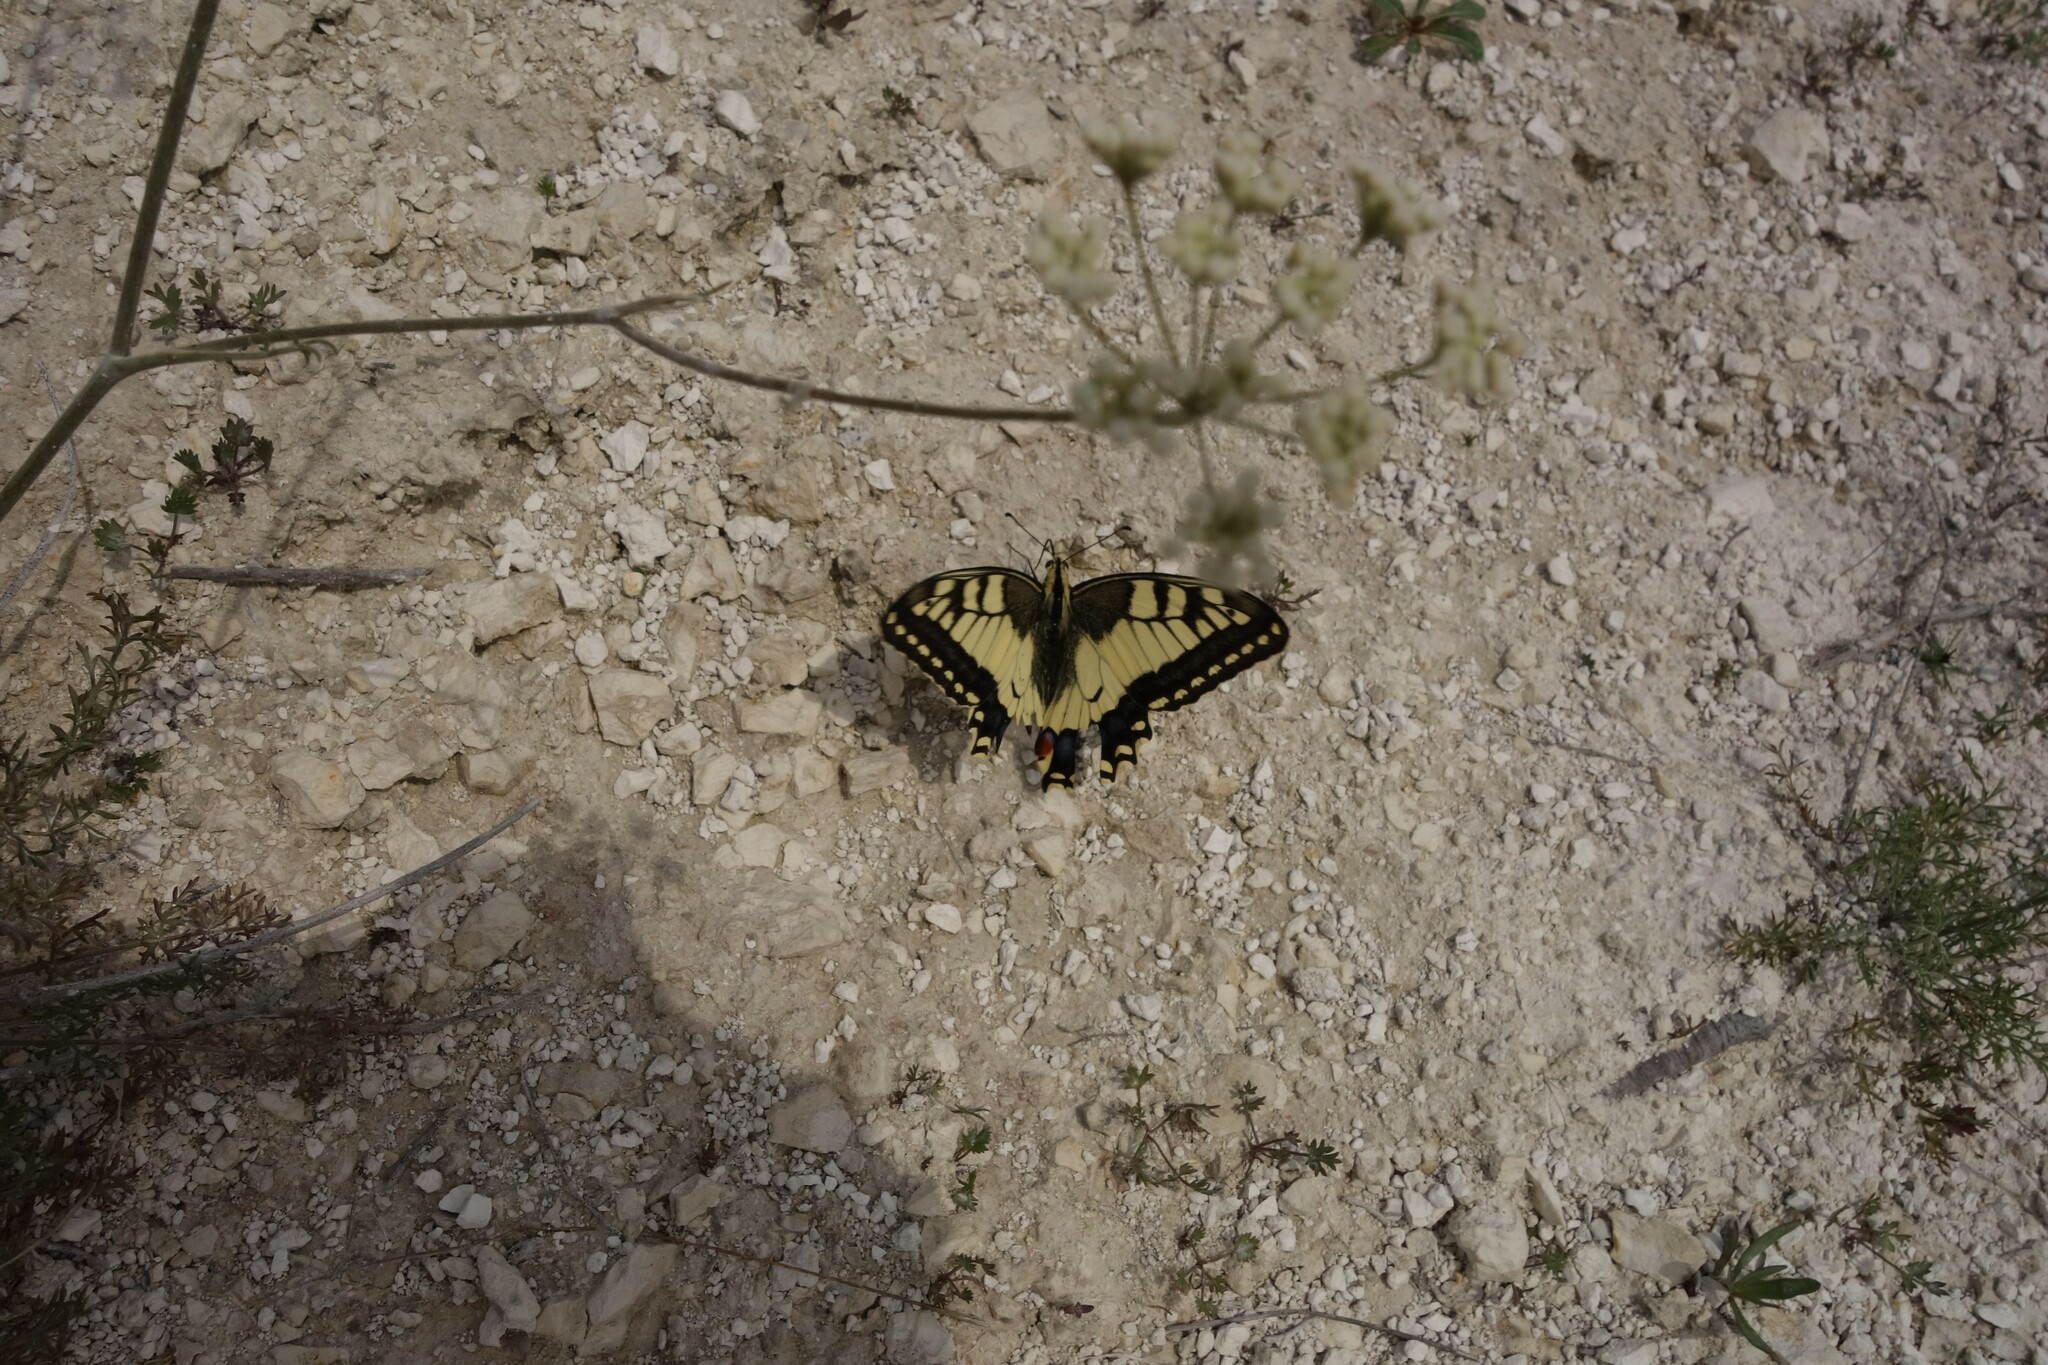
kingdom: Animalia
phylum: Arthropoda
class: Insecta
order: Lepidoptera
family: Papilionidae
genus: Papilio
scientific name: Papilio machaon
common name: Swallowtail
